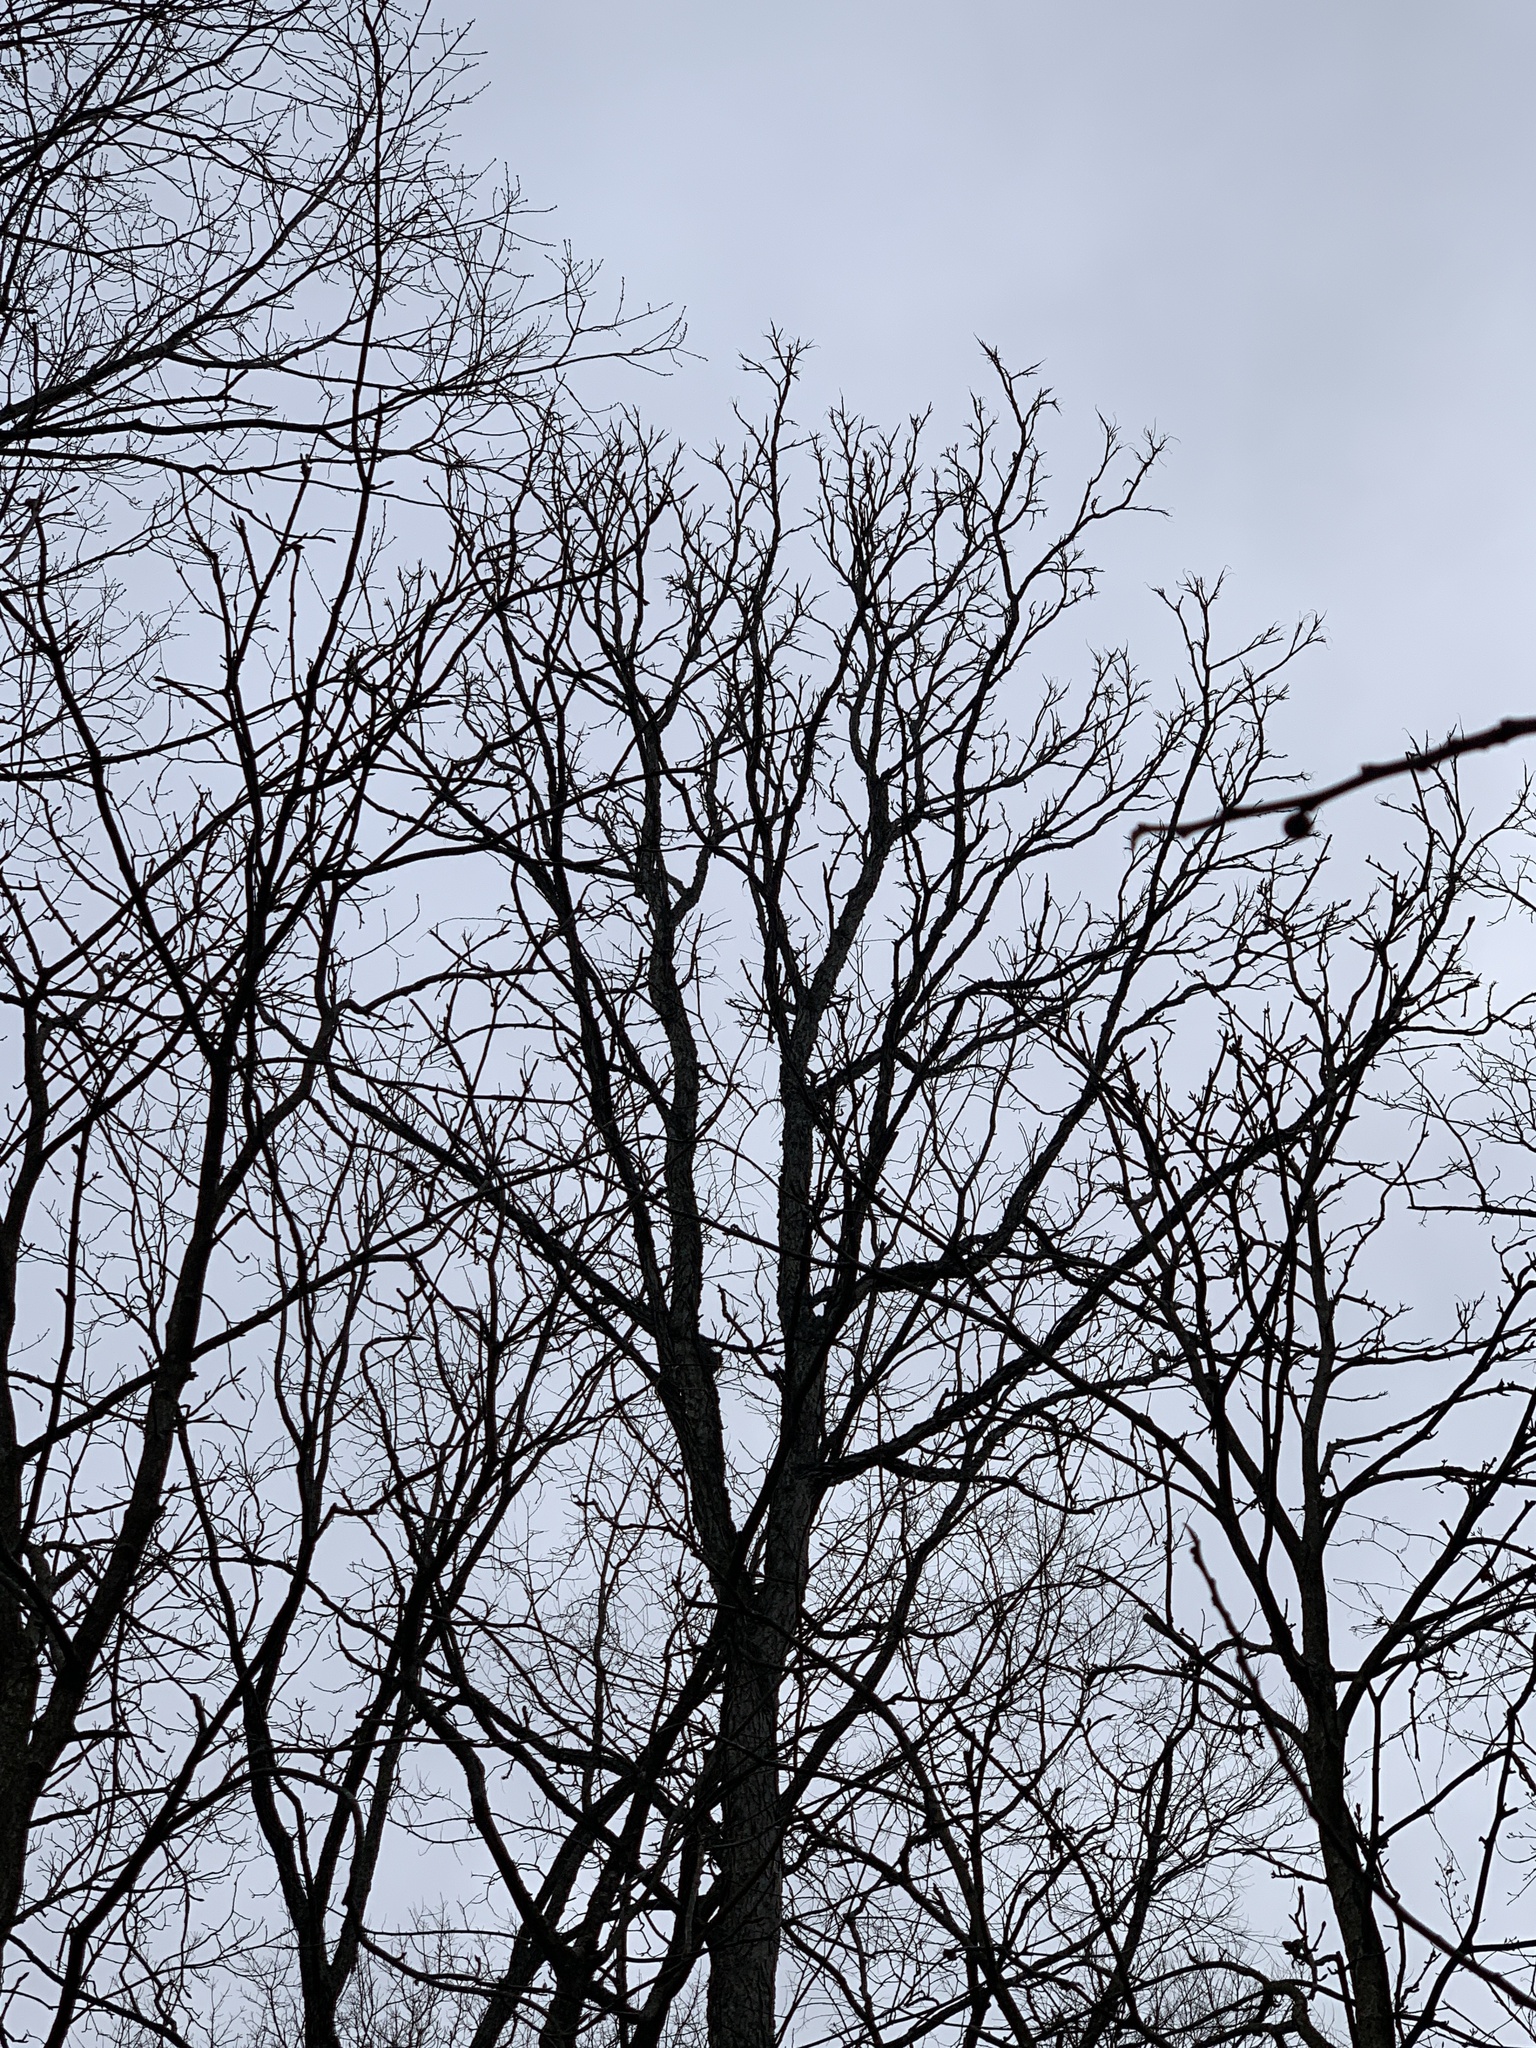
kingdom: Plantae
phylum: Tracheophyta
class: Magnoliopsida
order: Fabales
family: Fabaceae
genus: Gymnocladus
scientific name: Gymnocladus dioicus
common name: Kentucky coffee-tree
